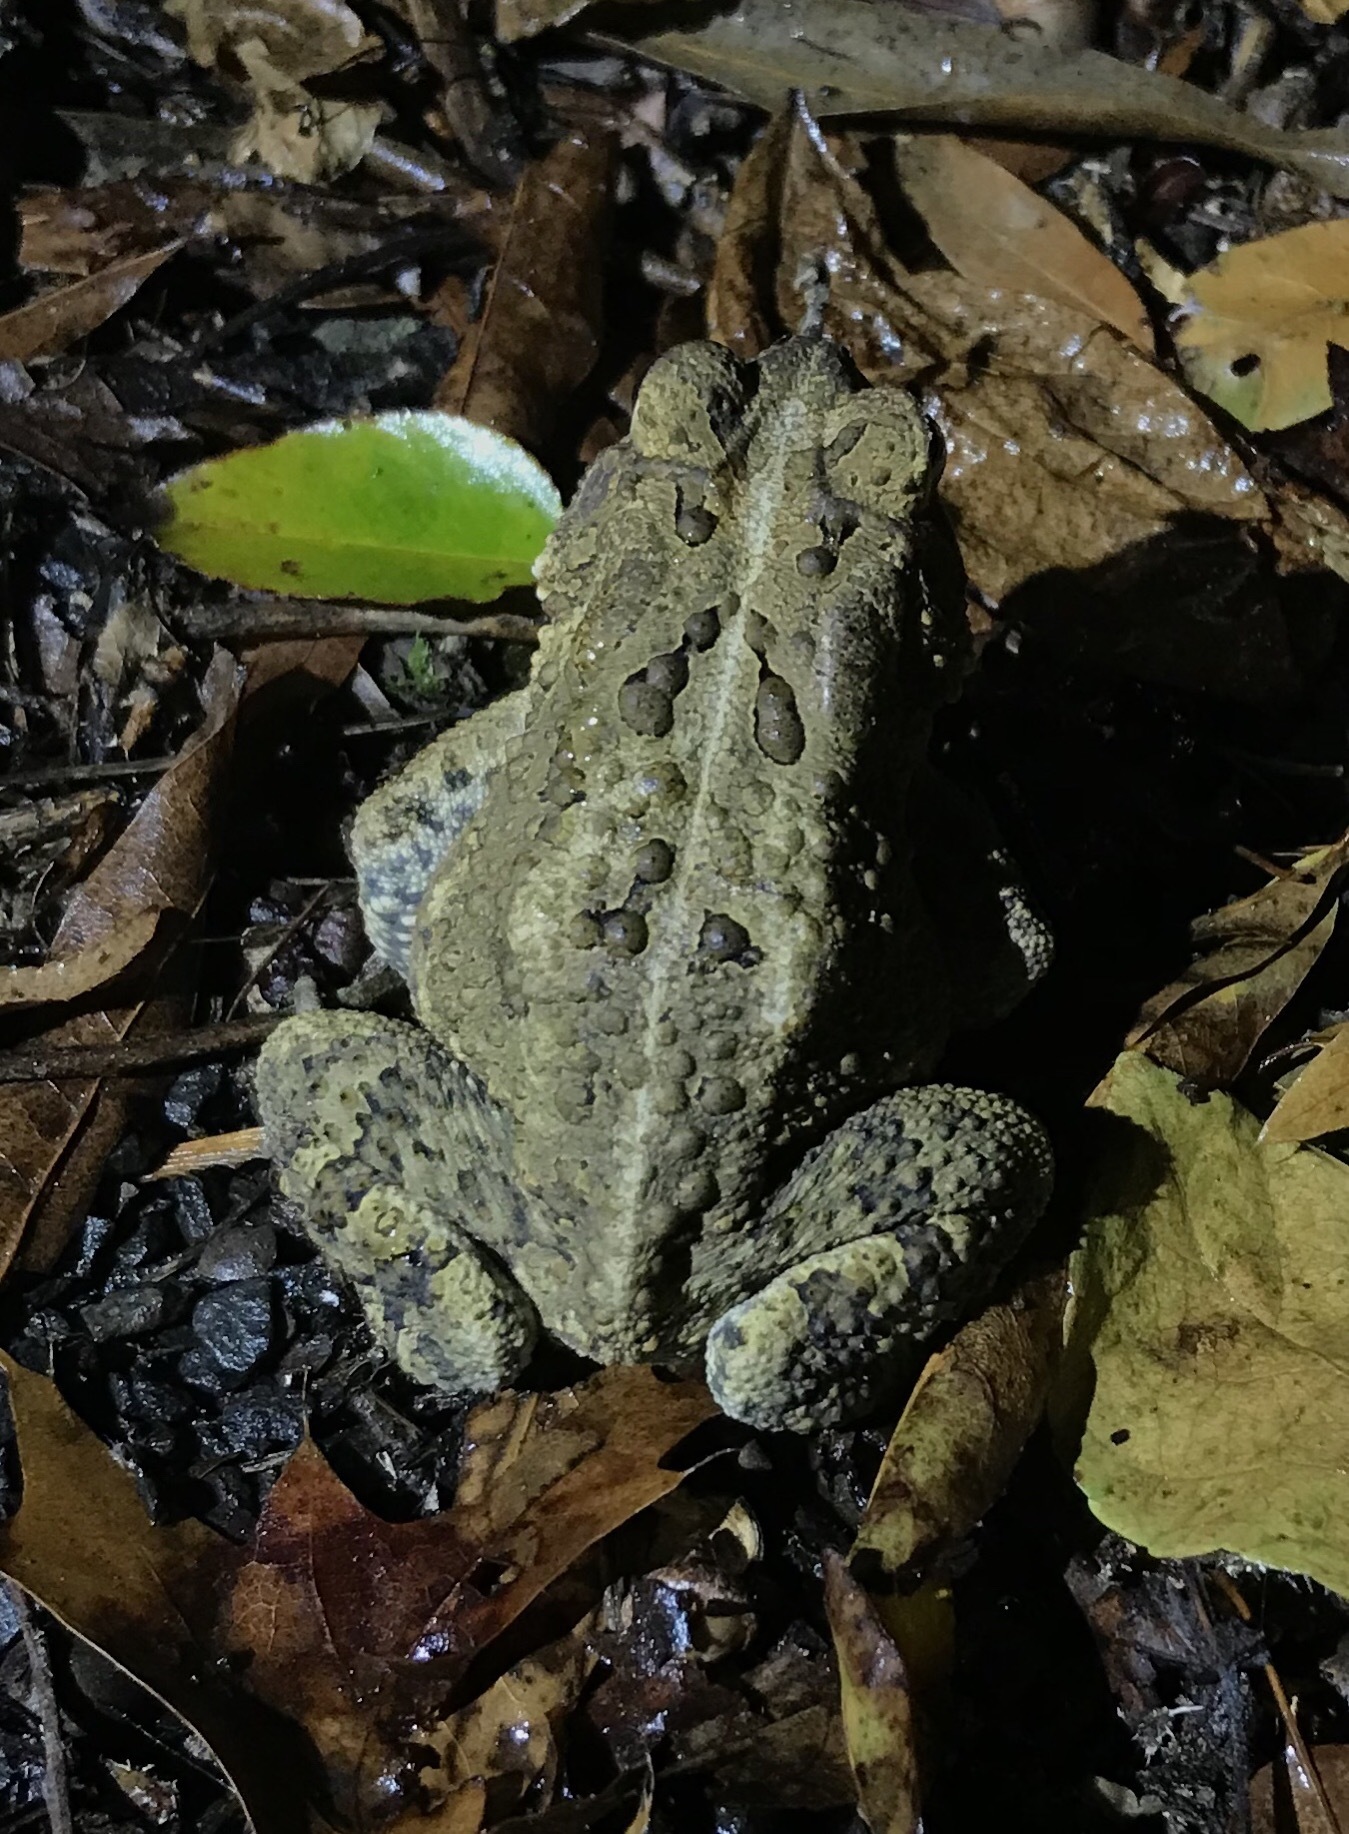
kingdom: Animalia
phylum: Chordata
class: Amphibia
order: Anura
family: Bufonidae
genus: Anaxyrus
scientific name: Anaxyrus americanus
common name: American toad
